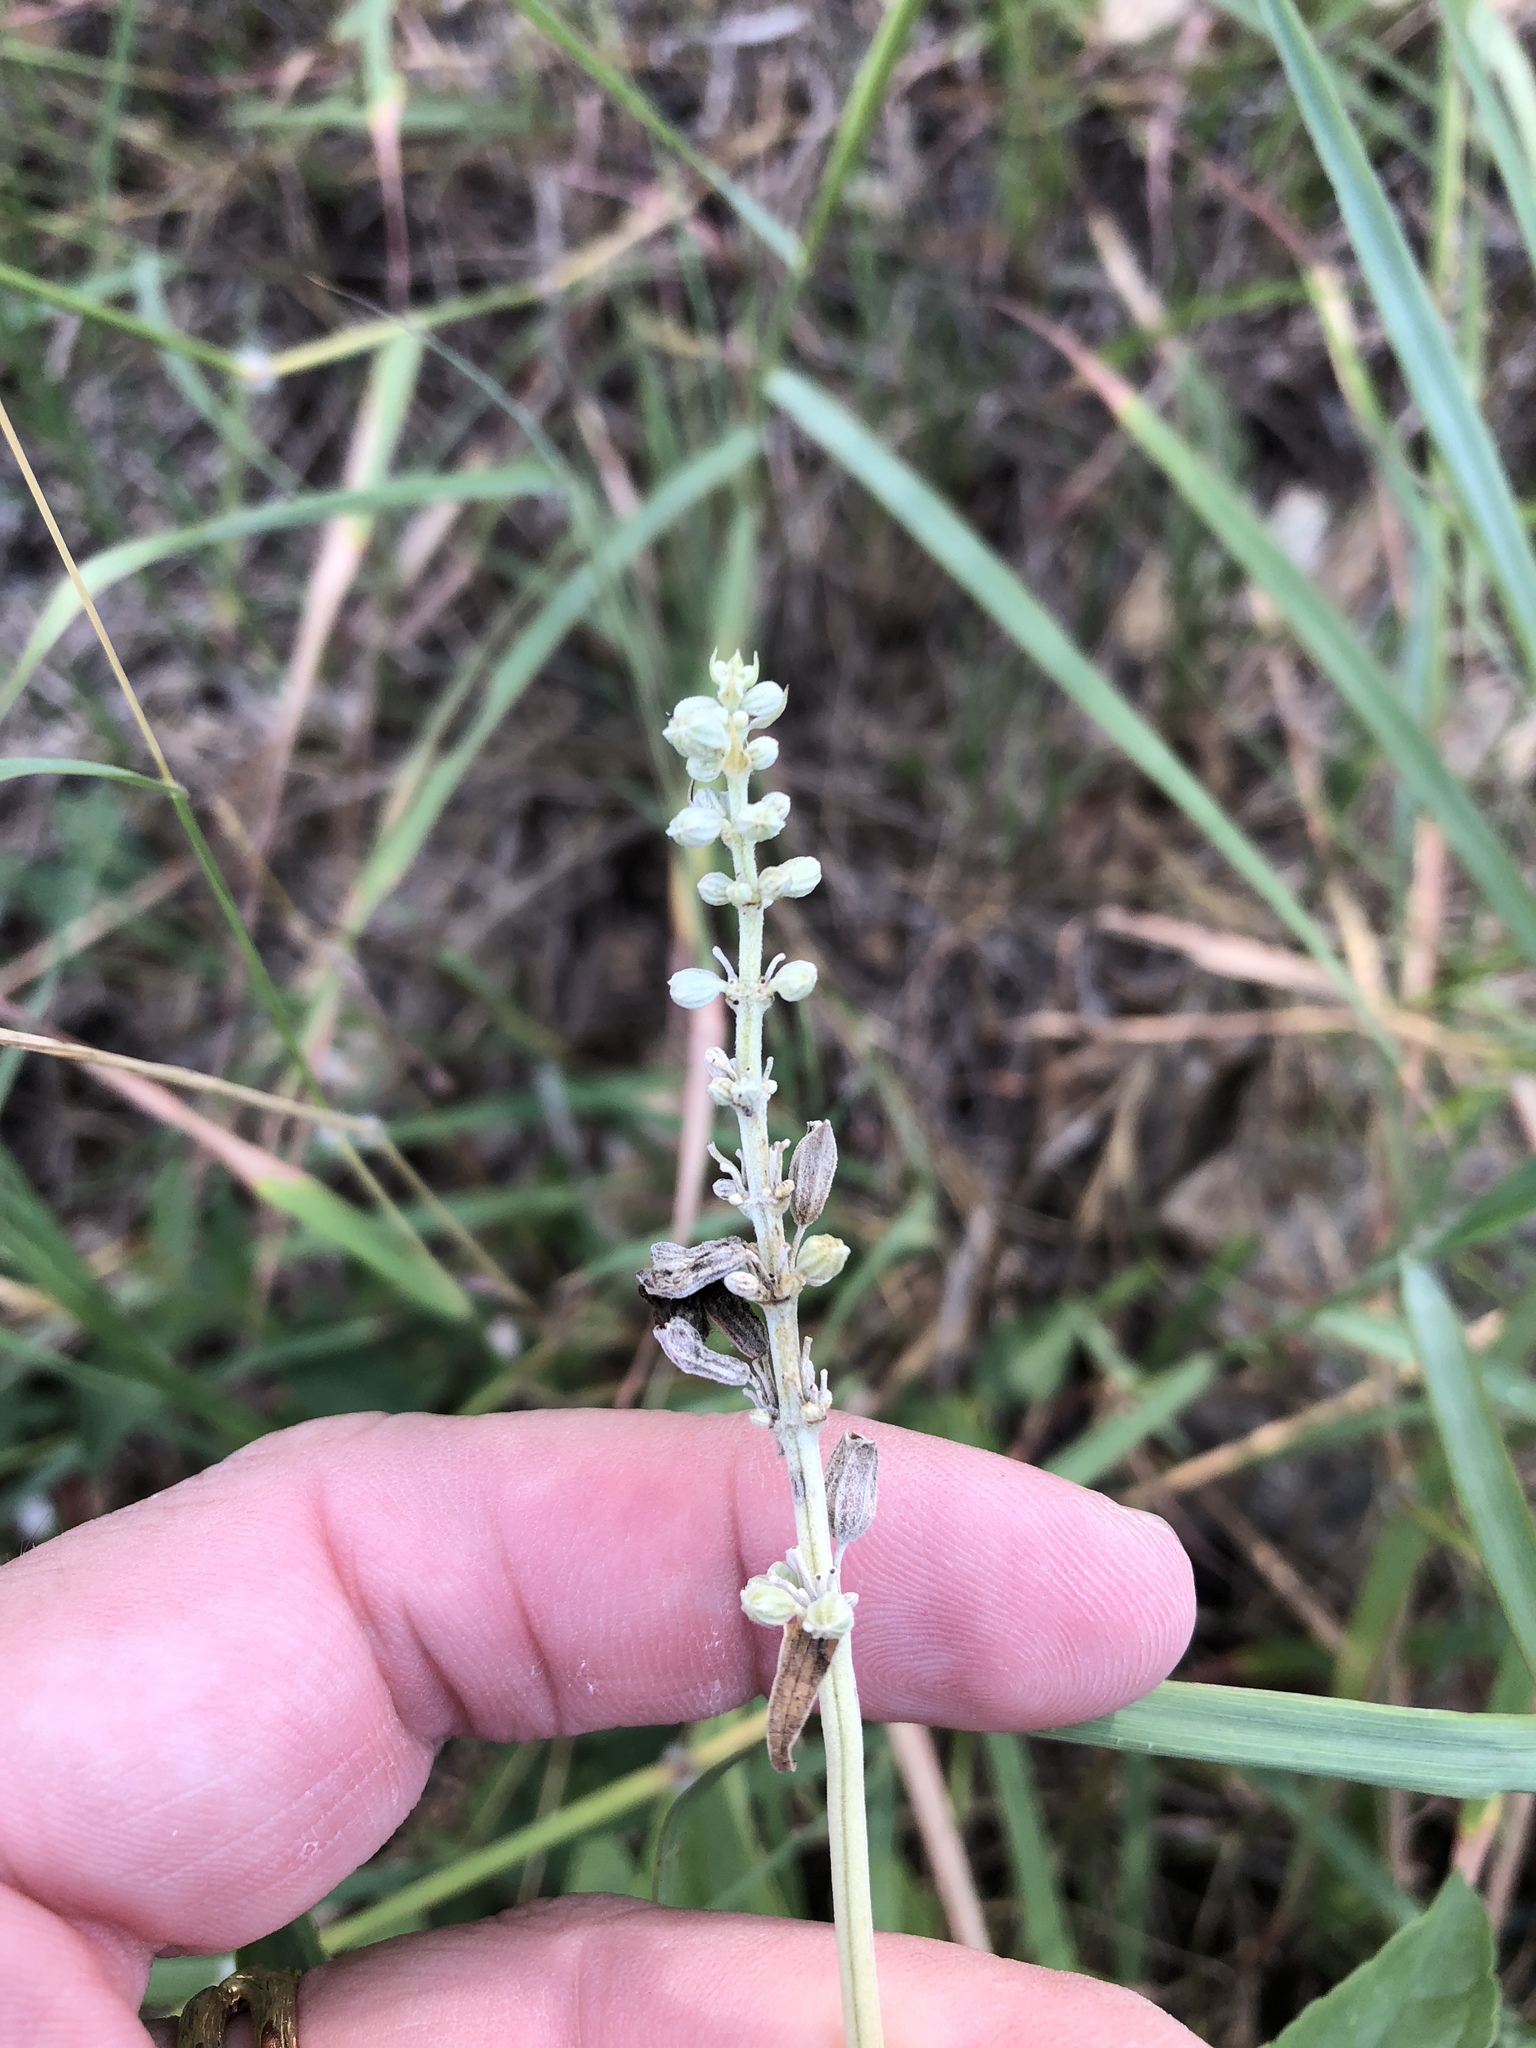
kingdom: Plantae
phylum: Tracheophyta
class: Magnoliopsida
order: Lamiales
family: Lamiaceae
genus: Salvia
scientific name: Salvia farinacea
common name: Mealy sage
